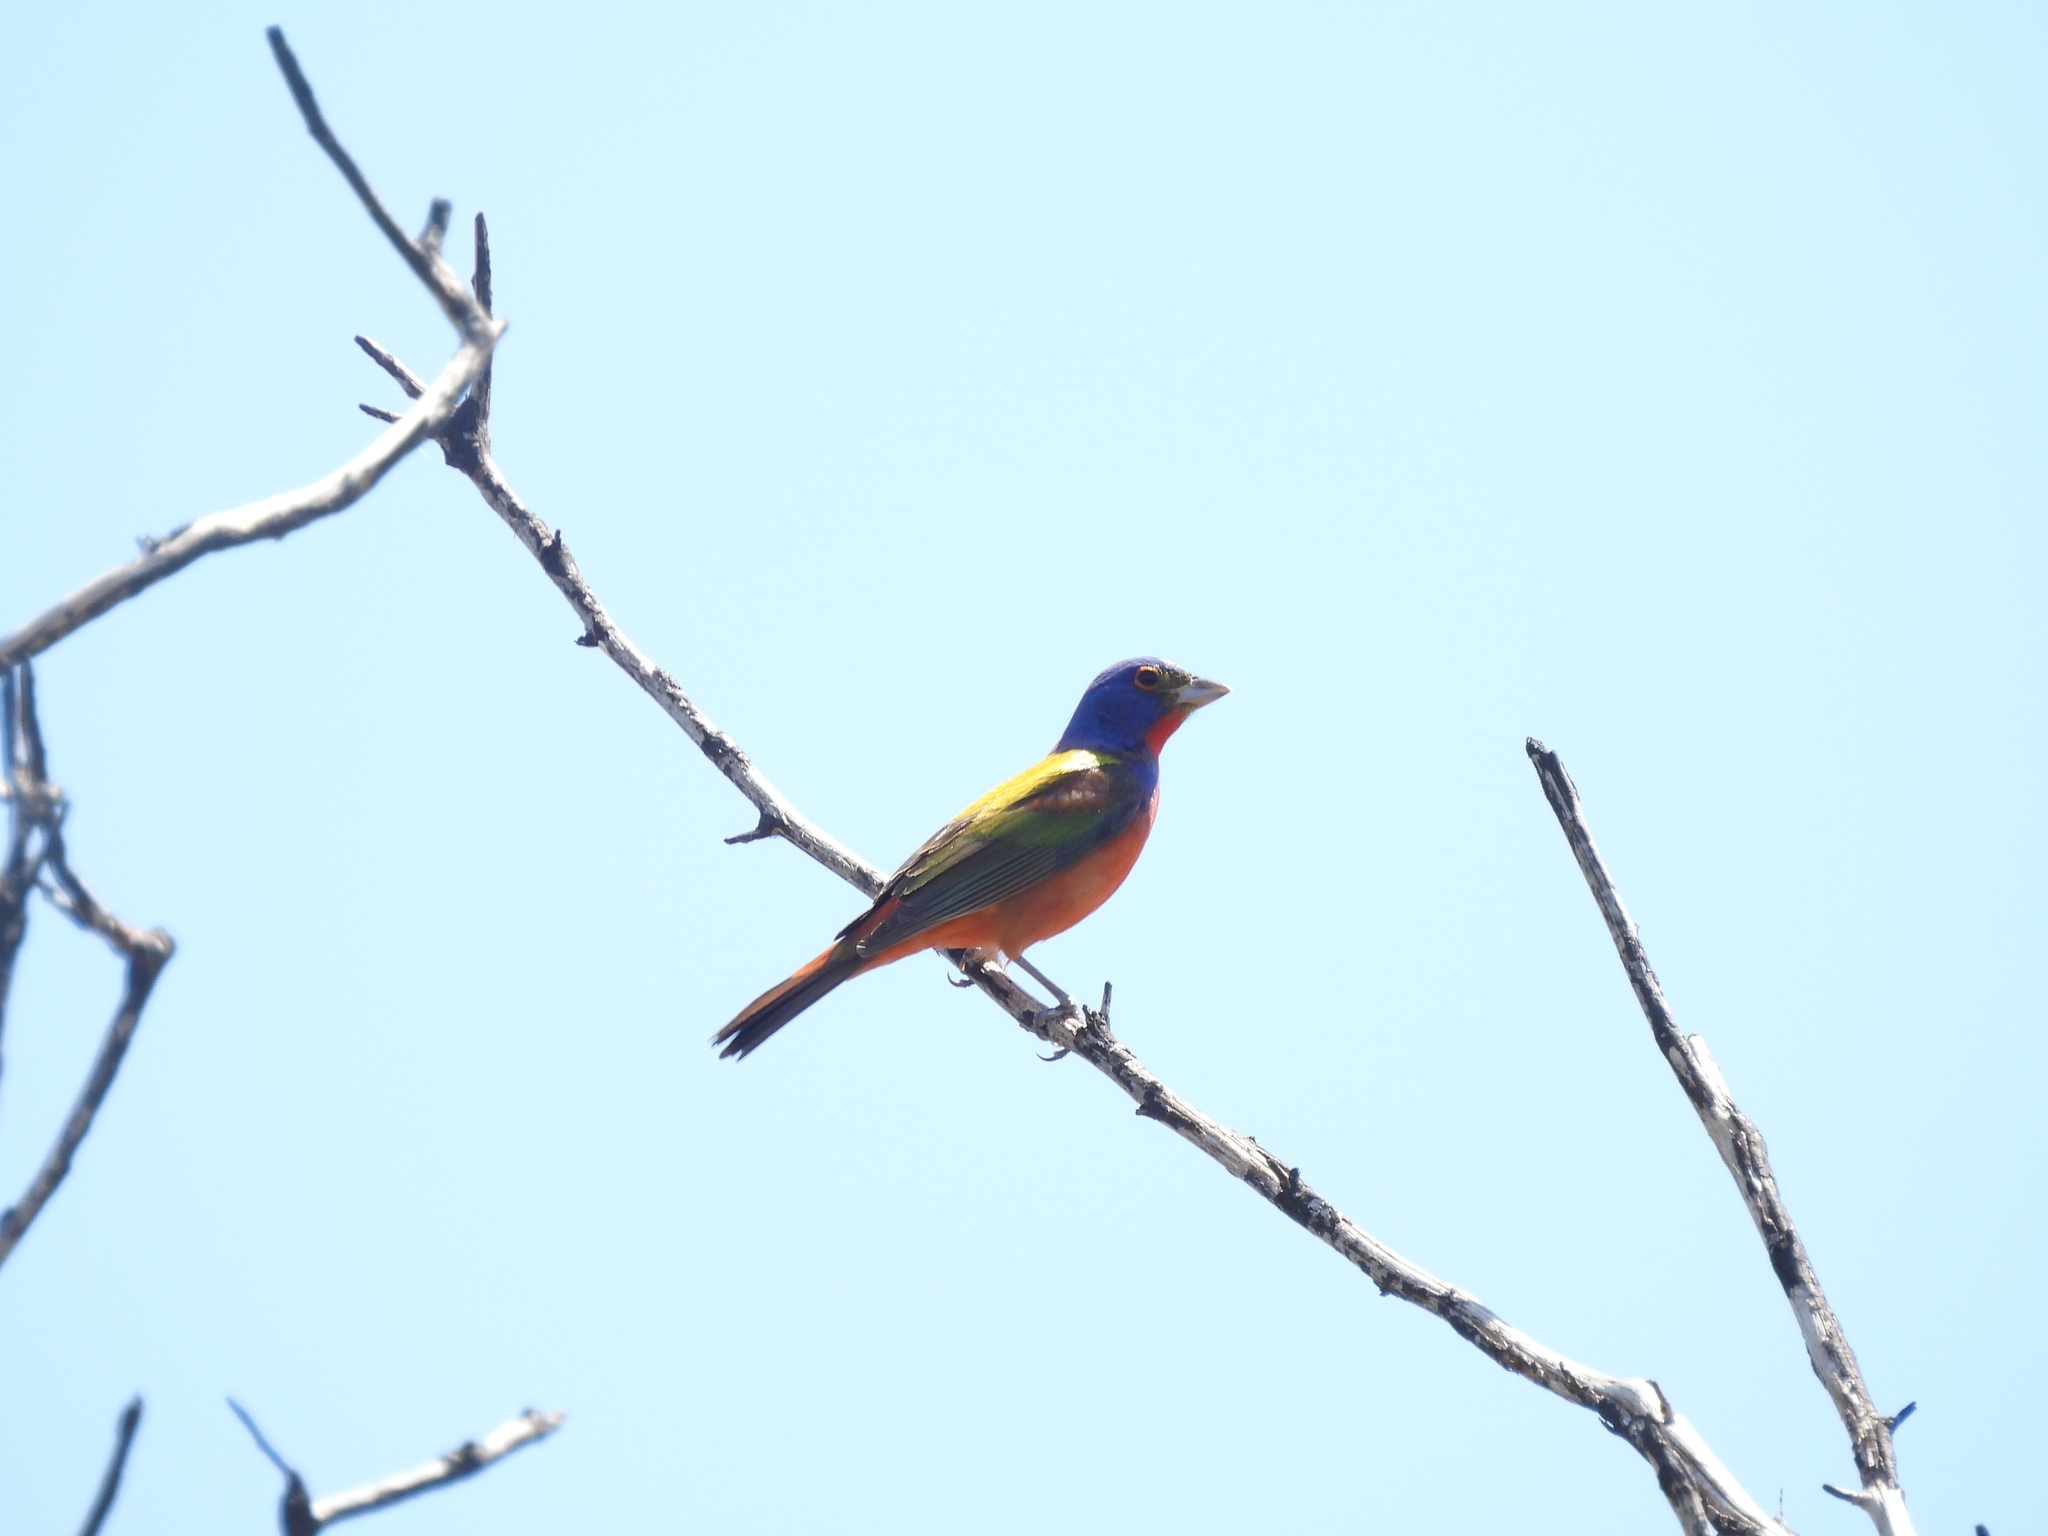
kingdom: Animalia
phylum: Chordata
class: Aves
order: Passeriformes
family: Cardinalidae
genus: Passerina
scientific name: Passerina ciris
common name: Painted bunting
